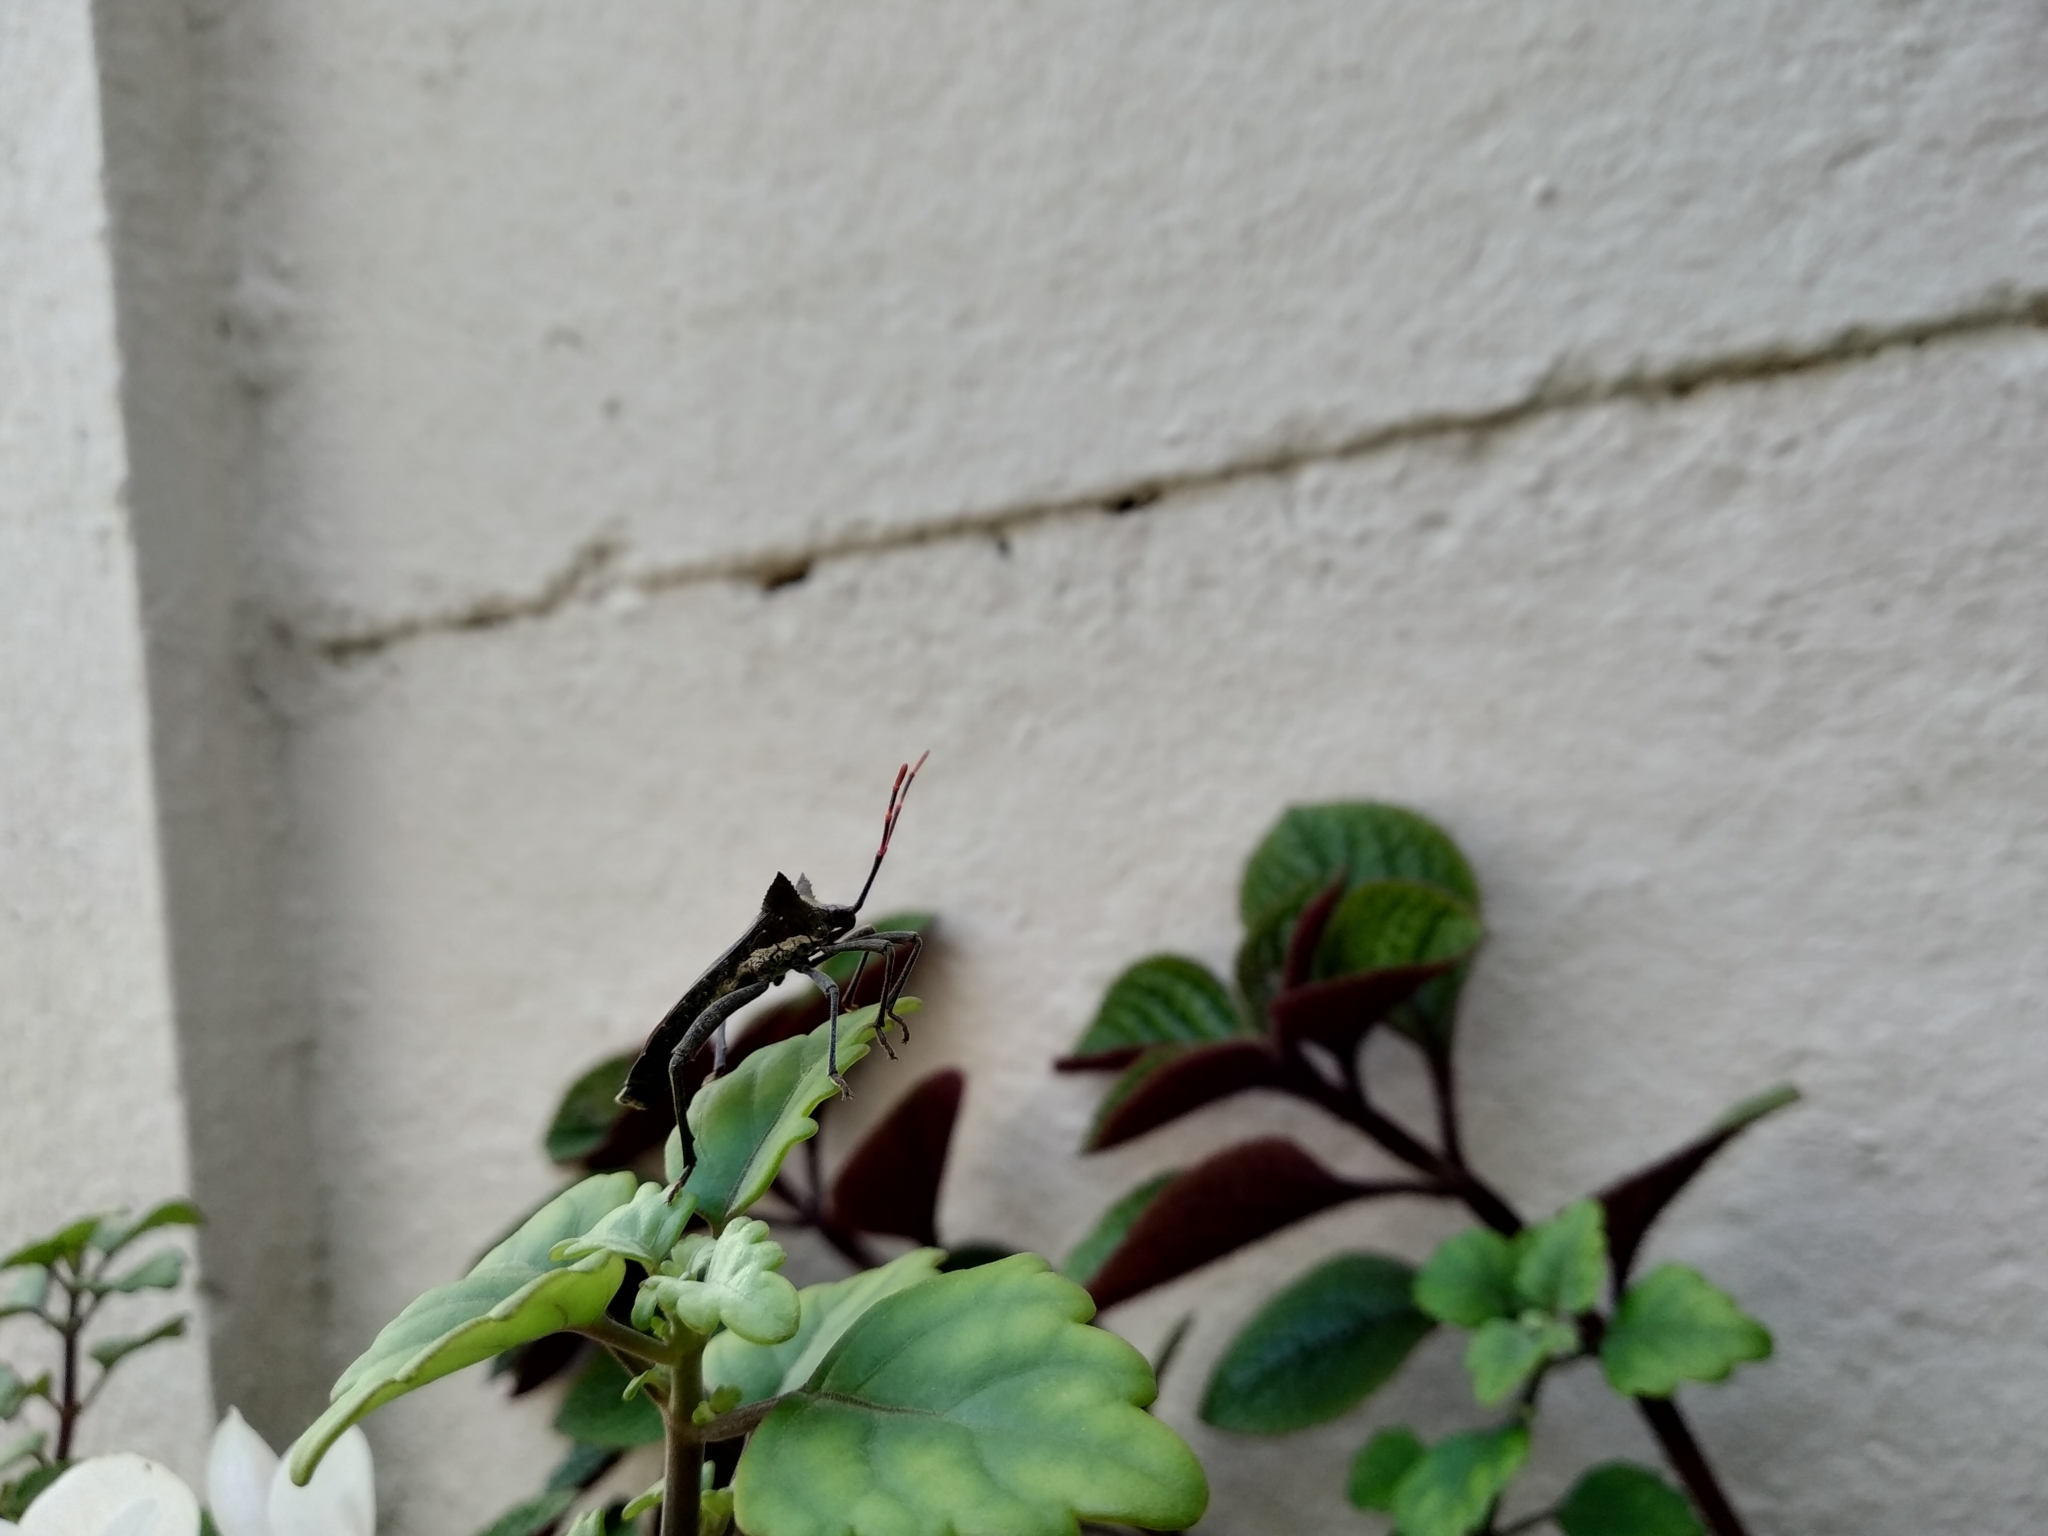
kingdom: Animalia
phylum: Arthropoda
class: Insecta
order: Hemiptera
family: Coreidae
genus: Elasmopoda
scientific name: Elasmopoda valga
